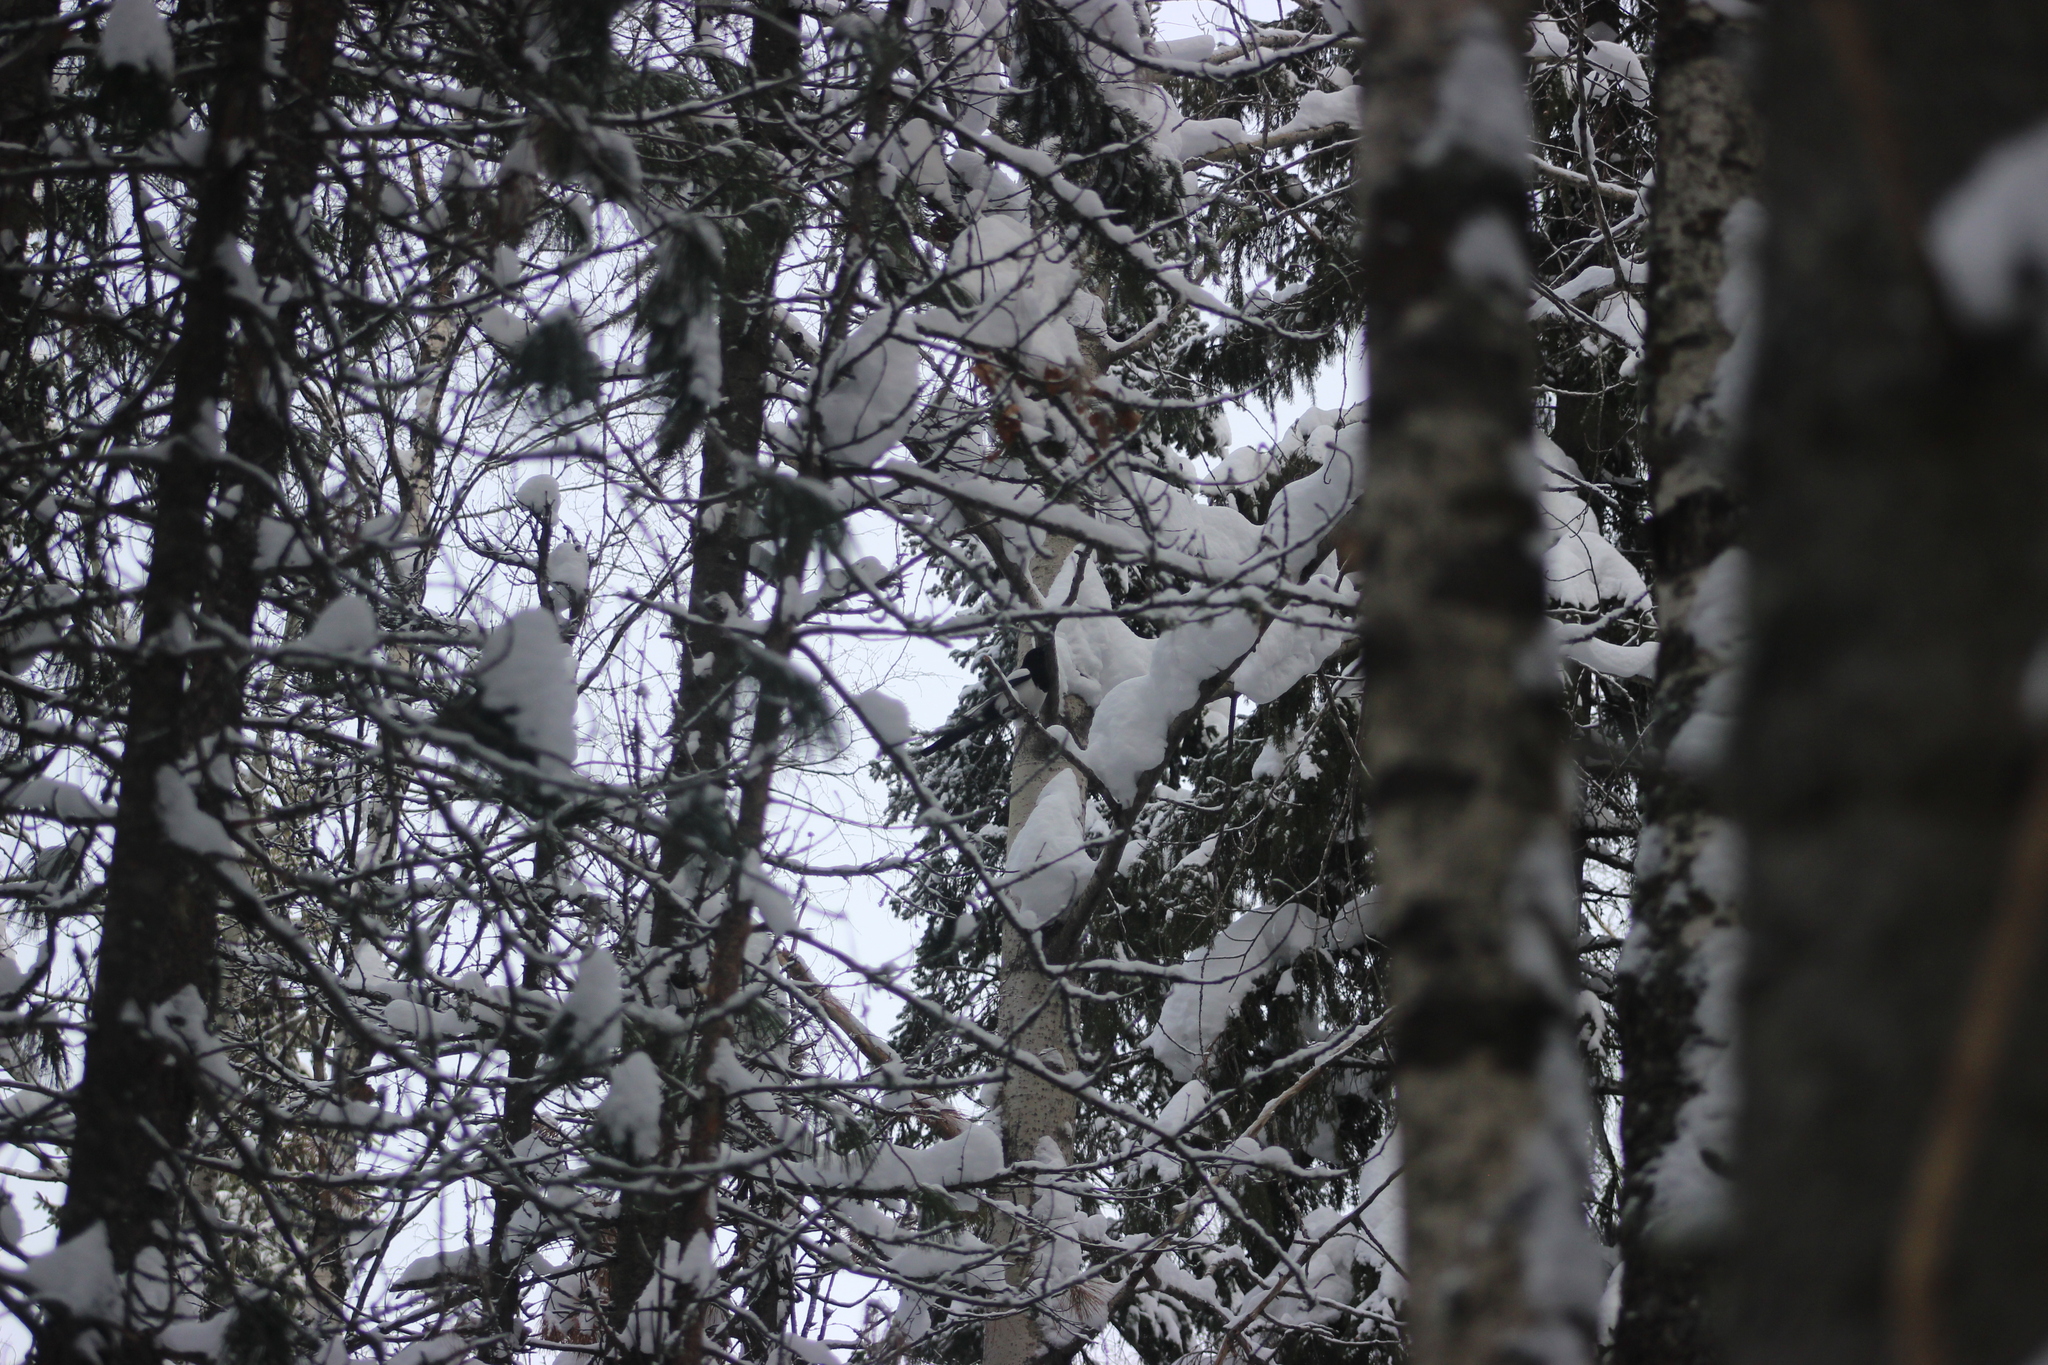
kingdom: Animalia
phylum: Chordata
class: Aves
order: Passeriformes
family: Corvidae
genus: Pica
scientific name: Pica pica
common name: Eurasian magpie
